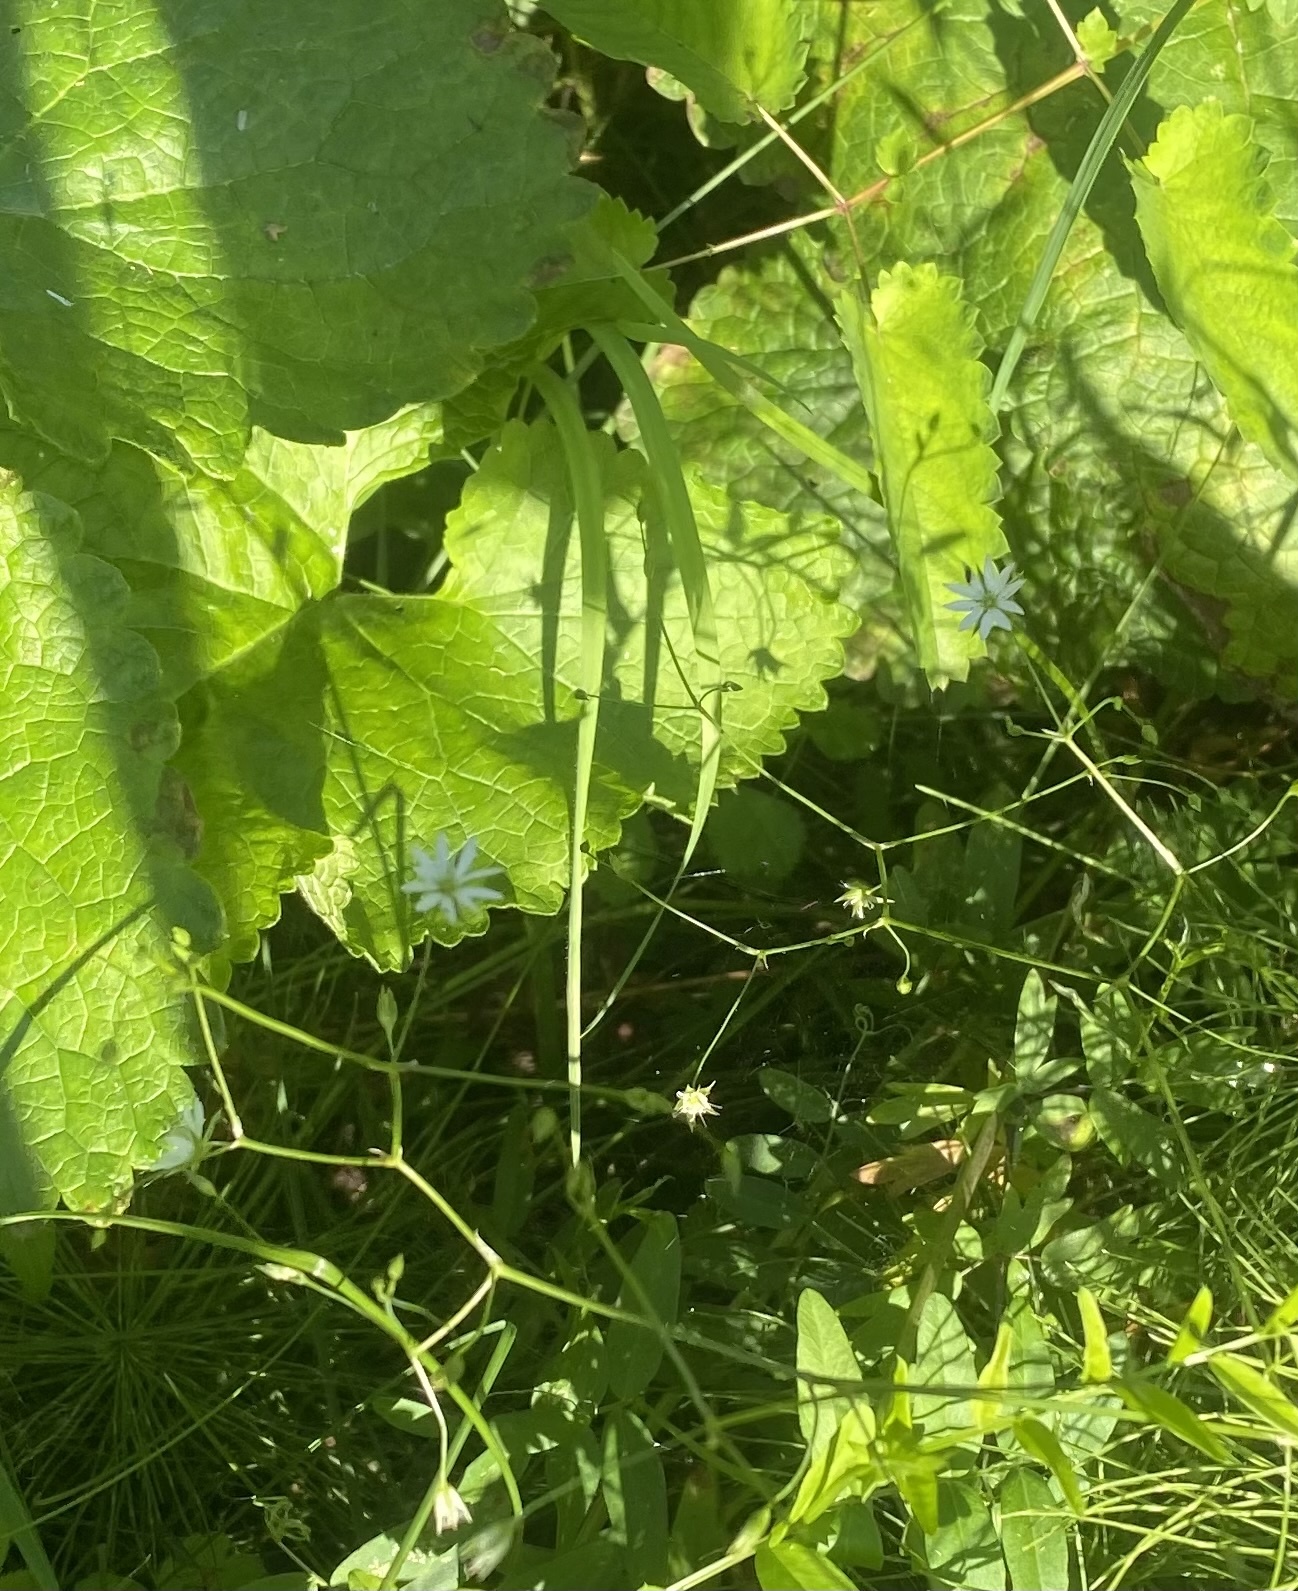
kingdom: Plantae
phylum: Tracheophyta
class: Magnoliopsida
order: Caryophyllales
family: Caryophyllaceae
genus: Stellaria
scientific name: Stellaria graminea
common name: Grass-like starwort
